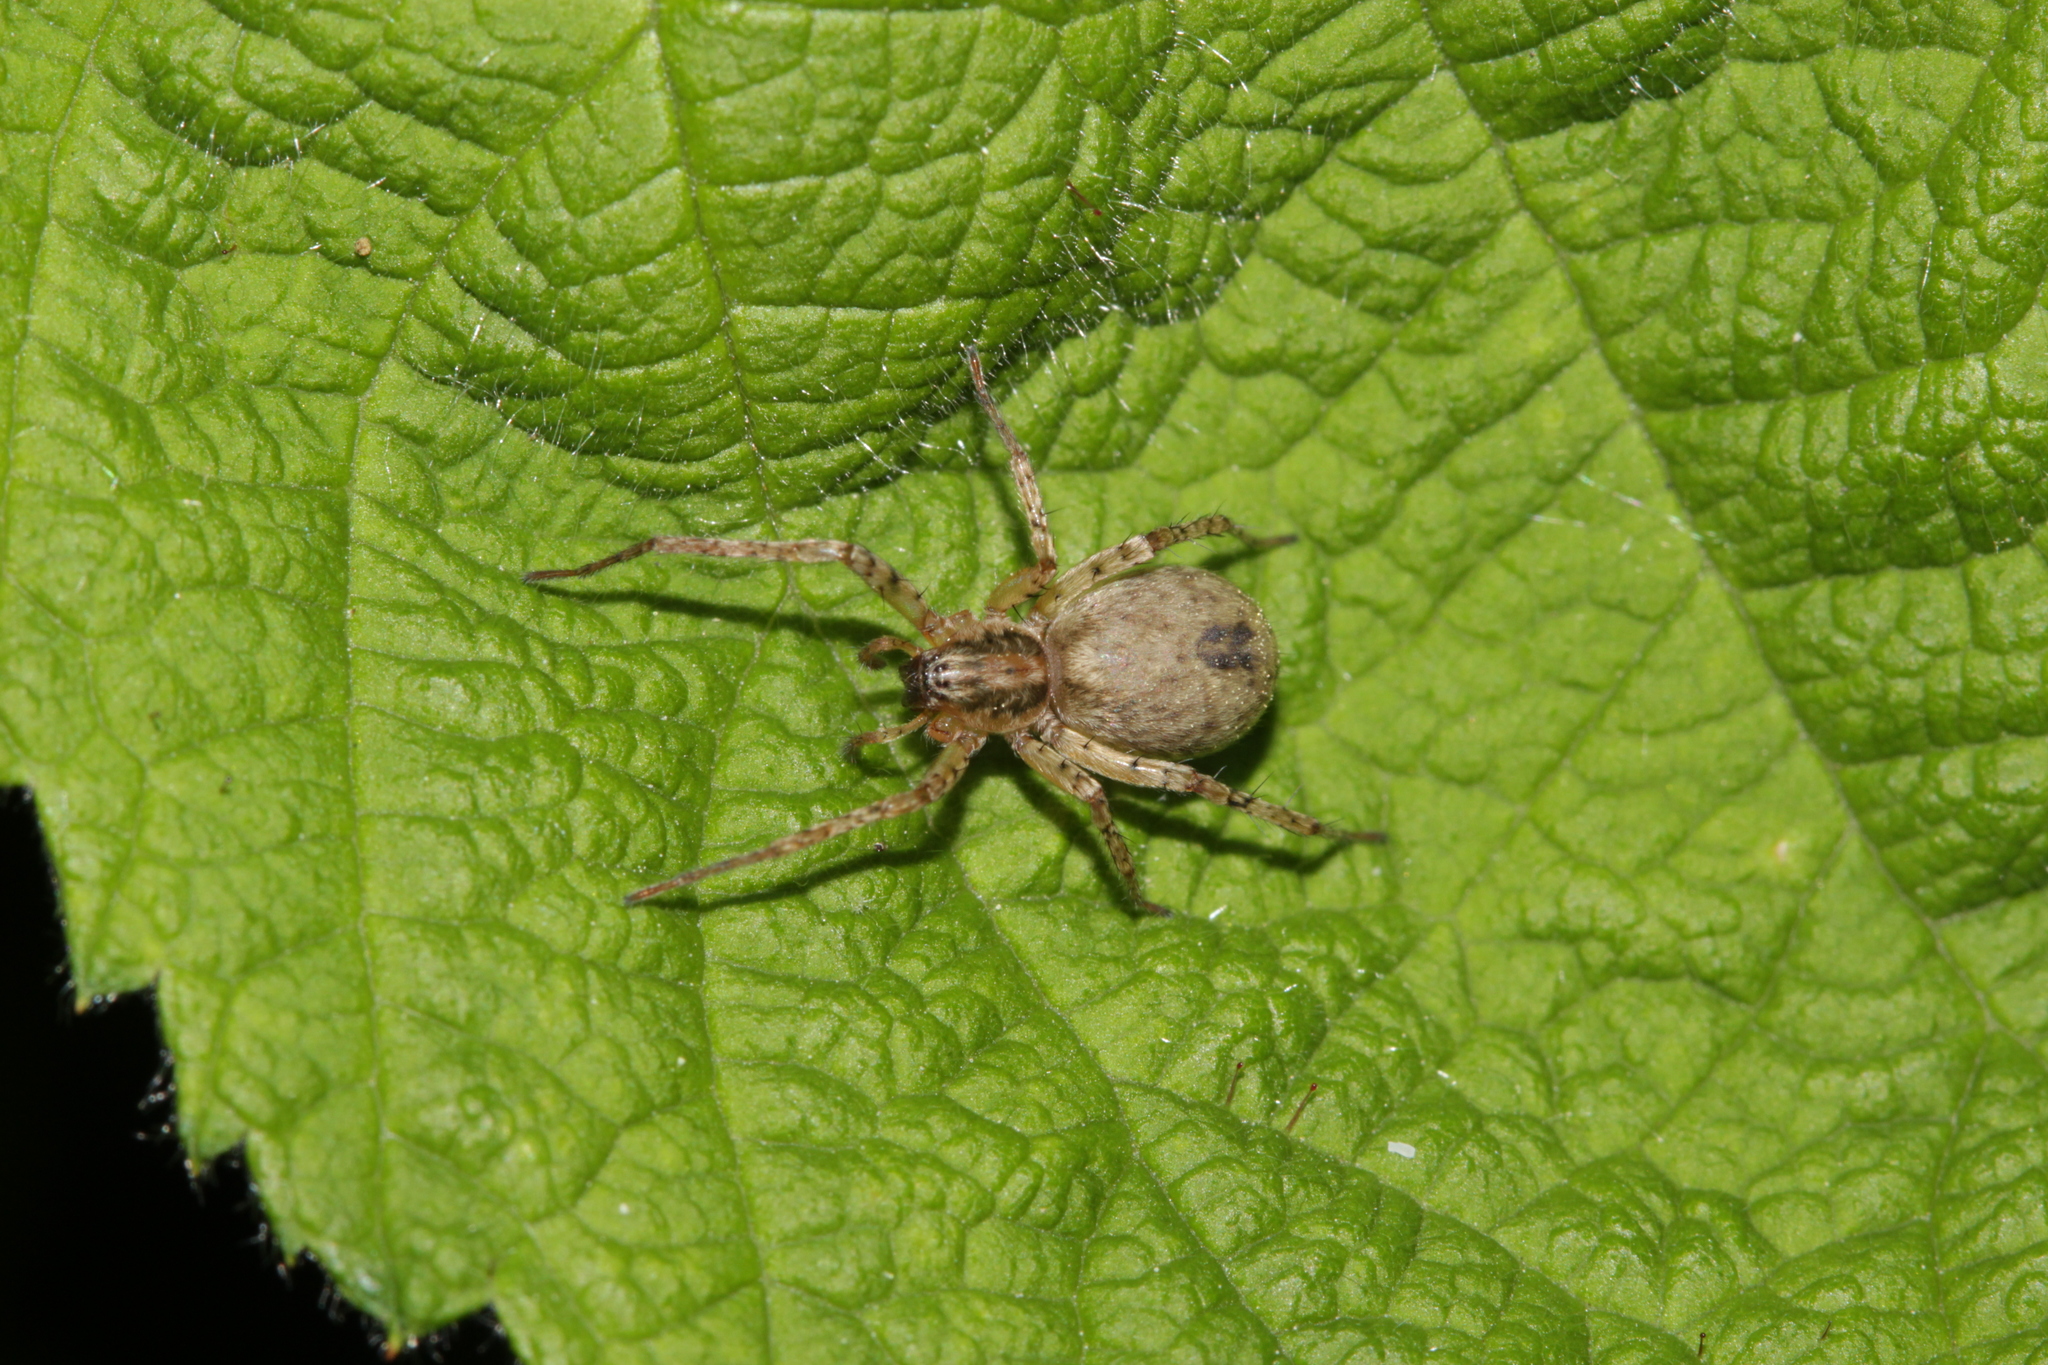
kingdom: Animalia
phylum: Arthropoda
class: Arachnida
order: Araneae
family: Anyphaenidae
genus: Anyphaena
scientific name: Anyphaena accentuata
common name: Buzzing spider
